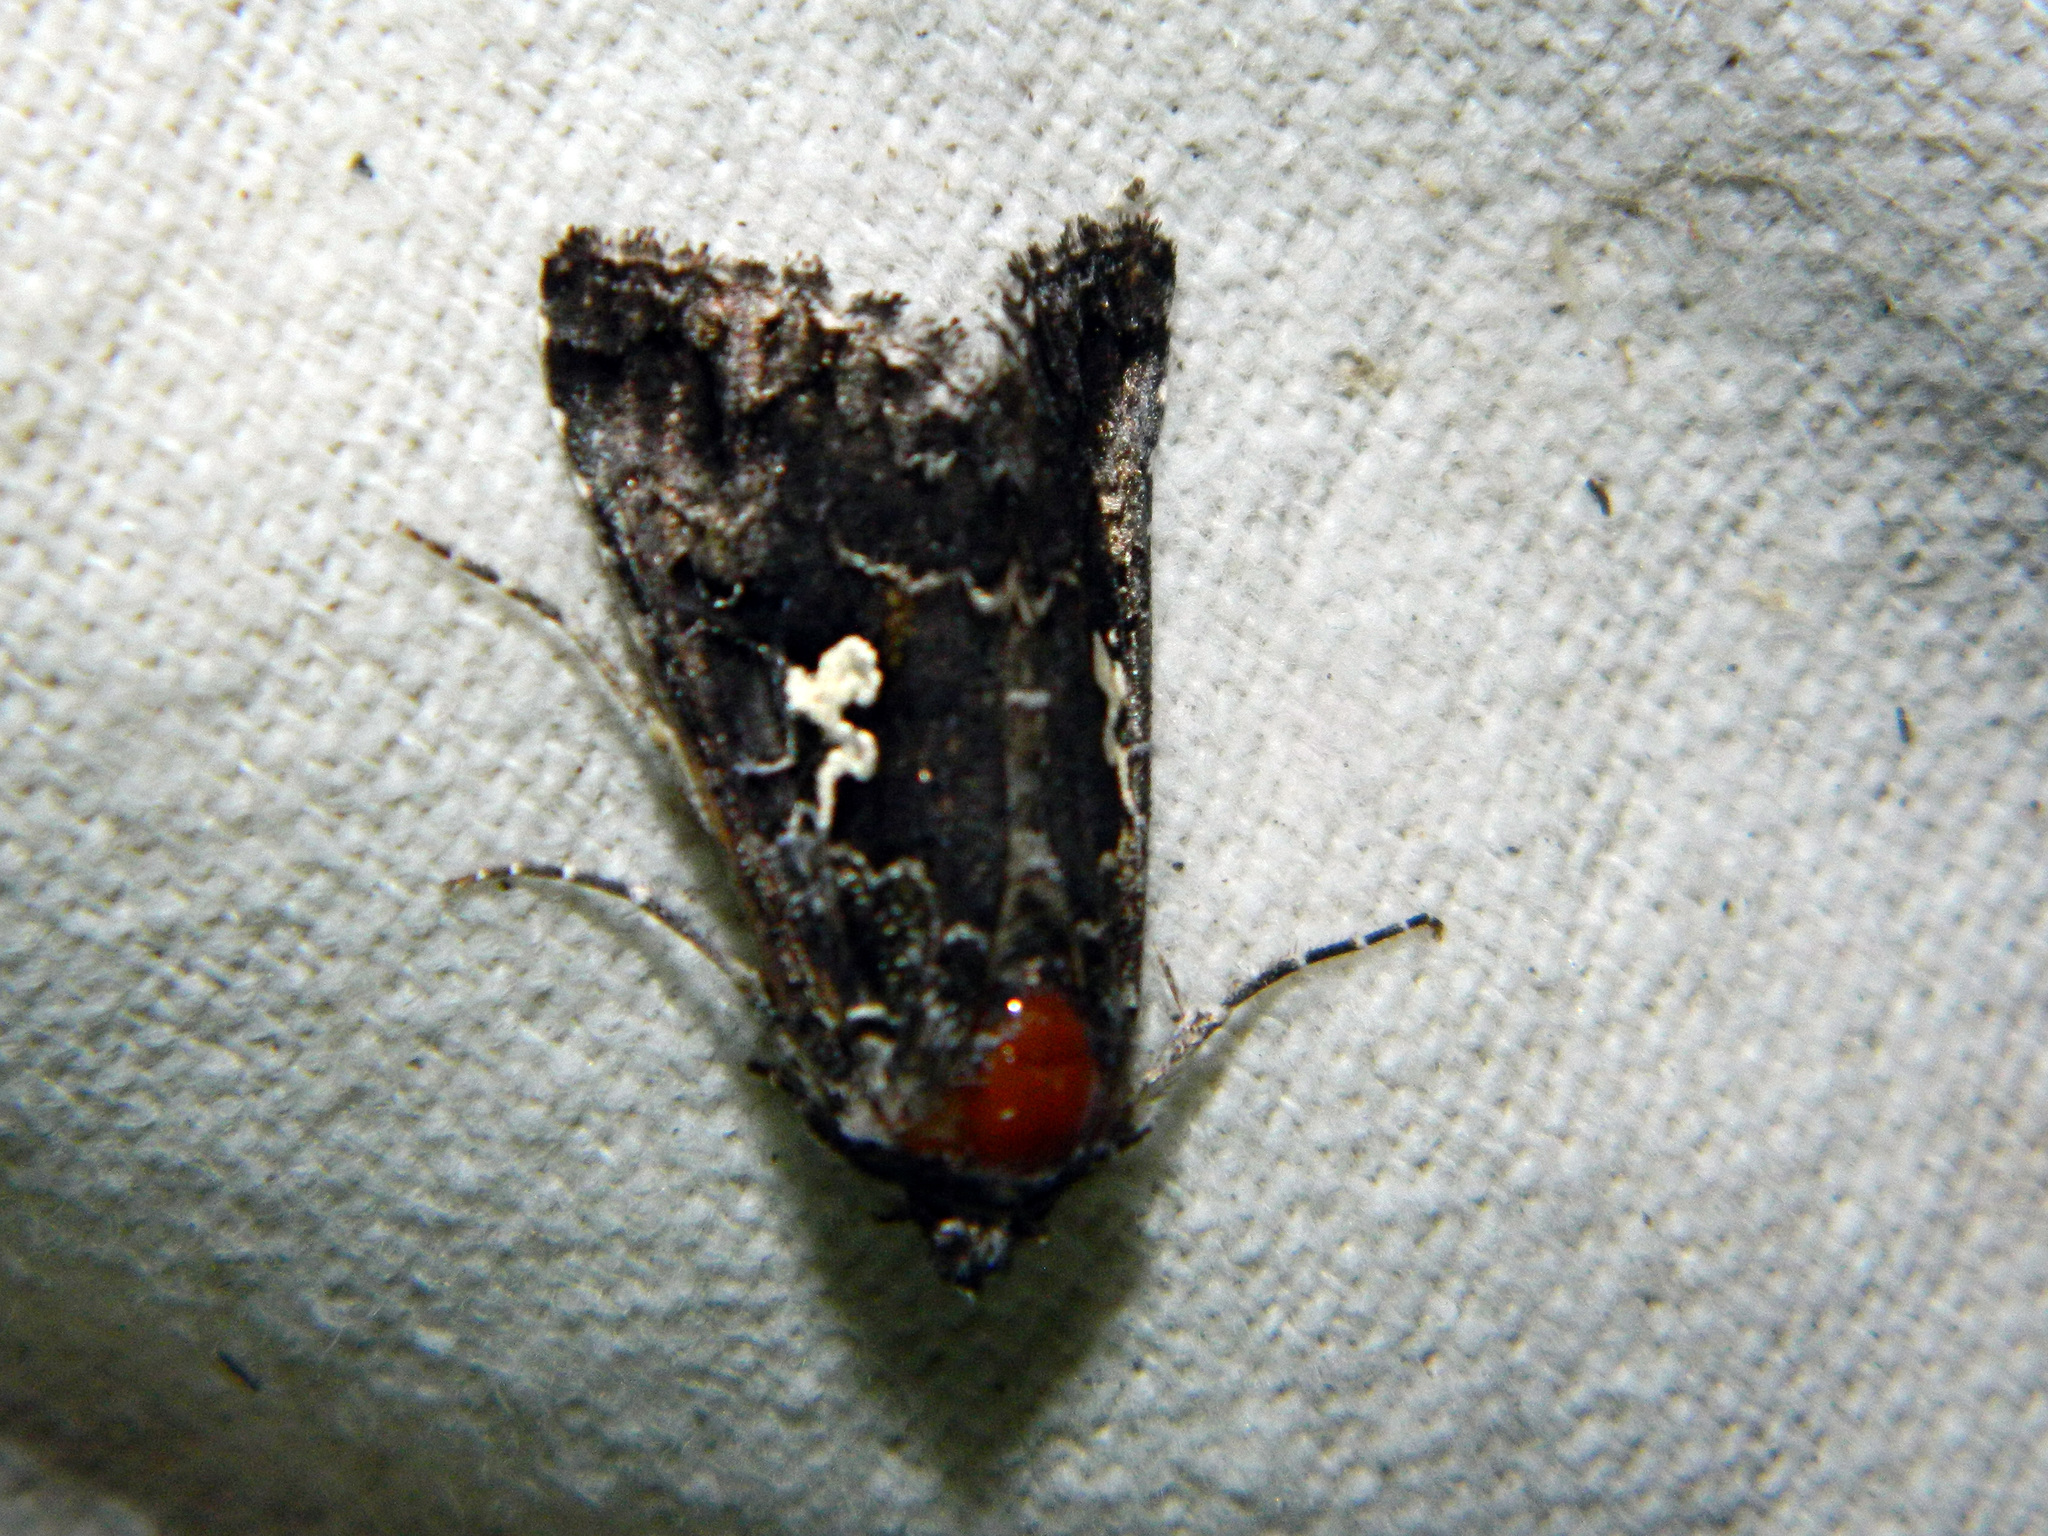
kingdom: Animalia
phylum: Arthropoda
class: Insecta
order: Lepidoptera
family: Noctuidae
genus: Syngrapha
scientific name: Syngrapha
